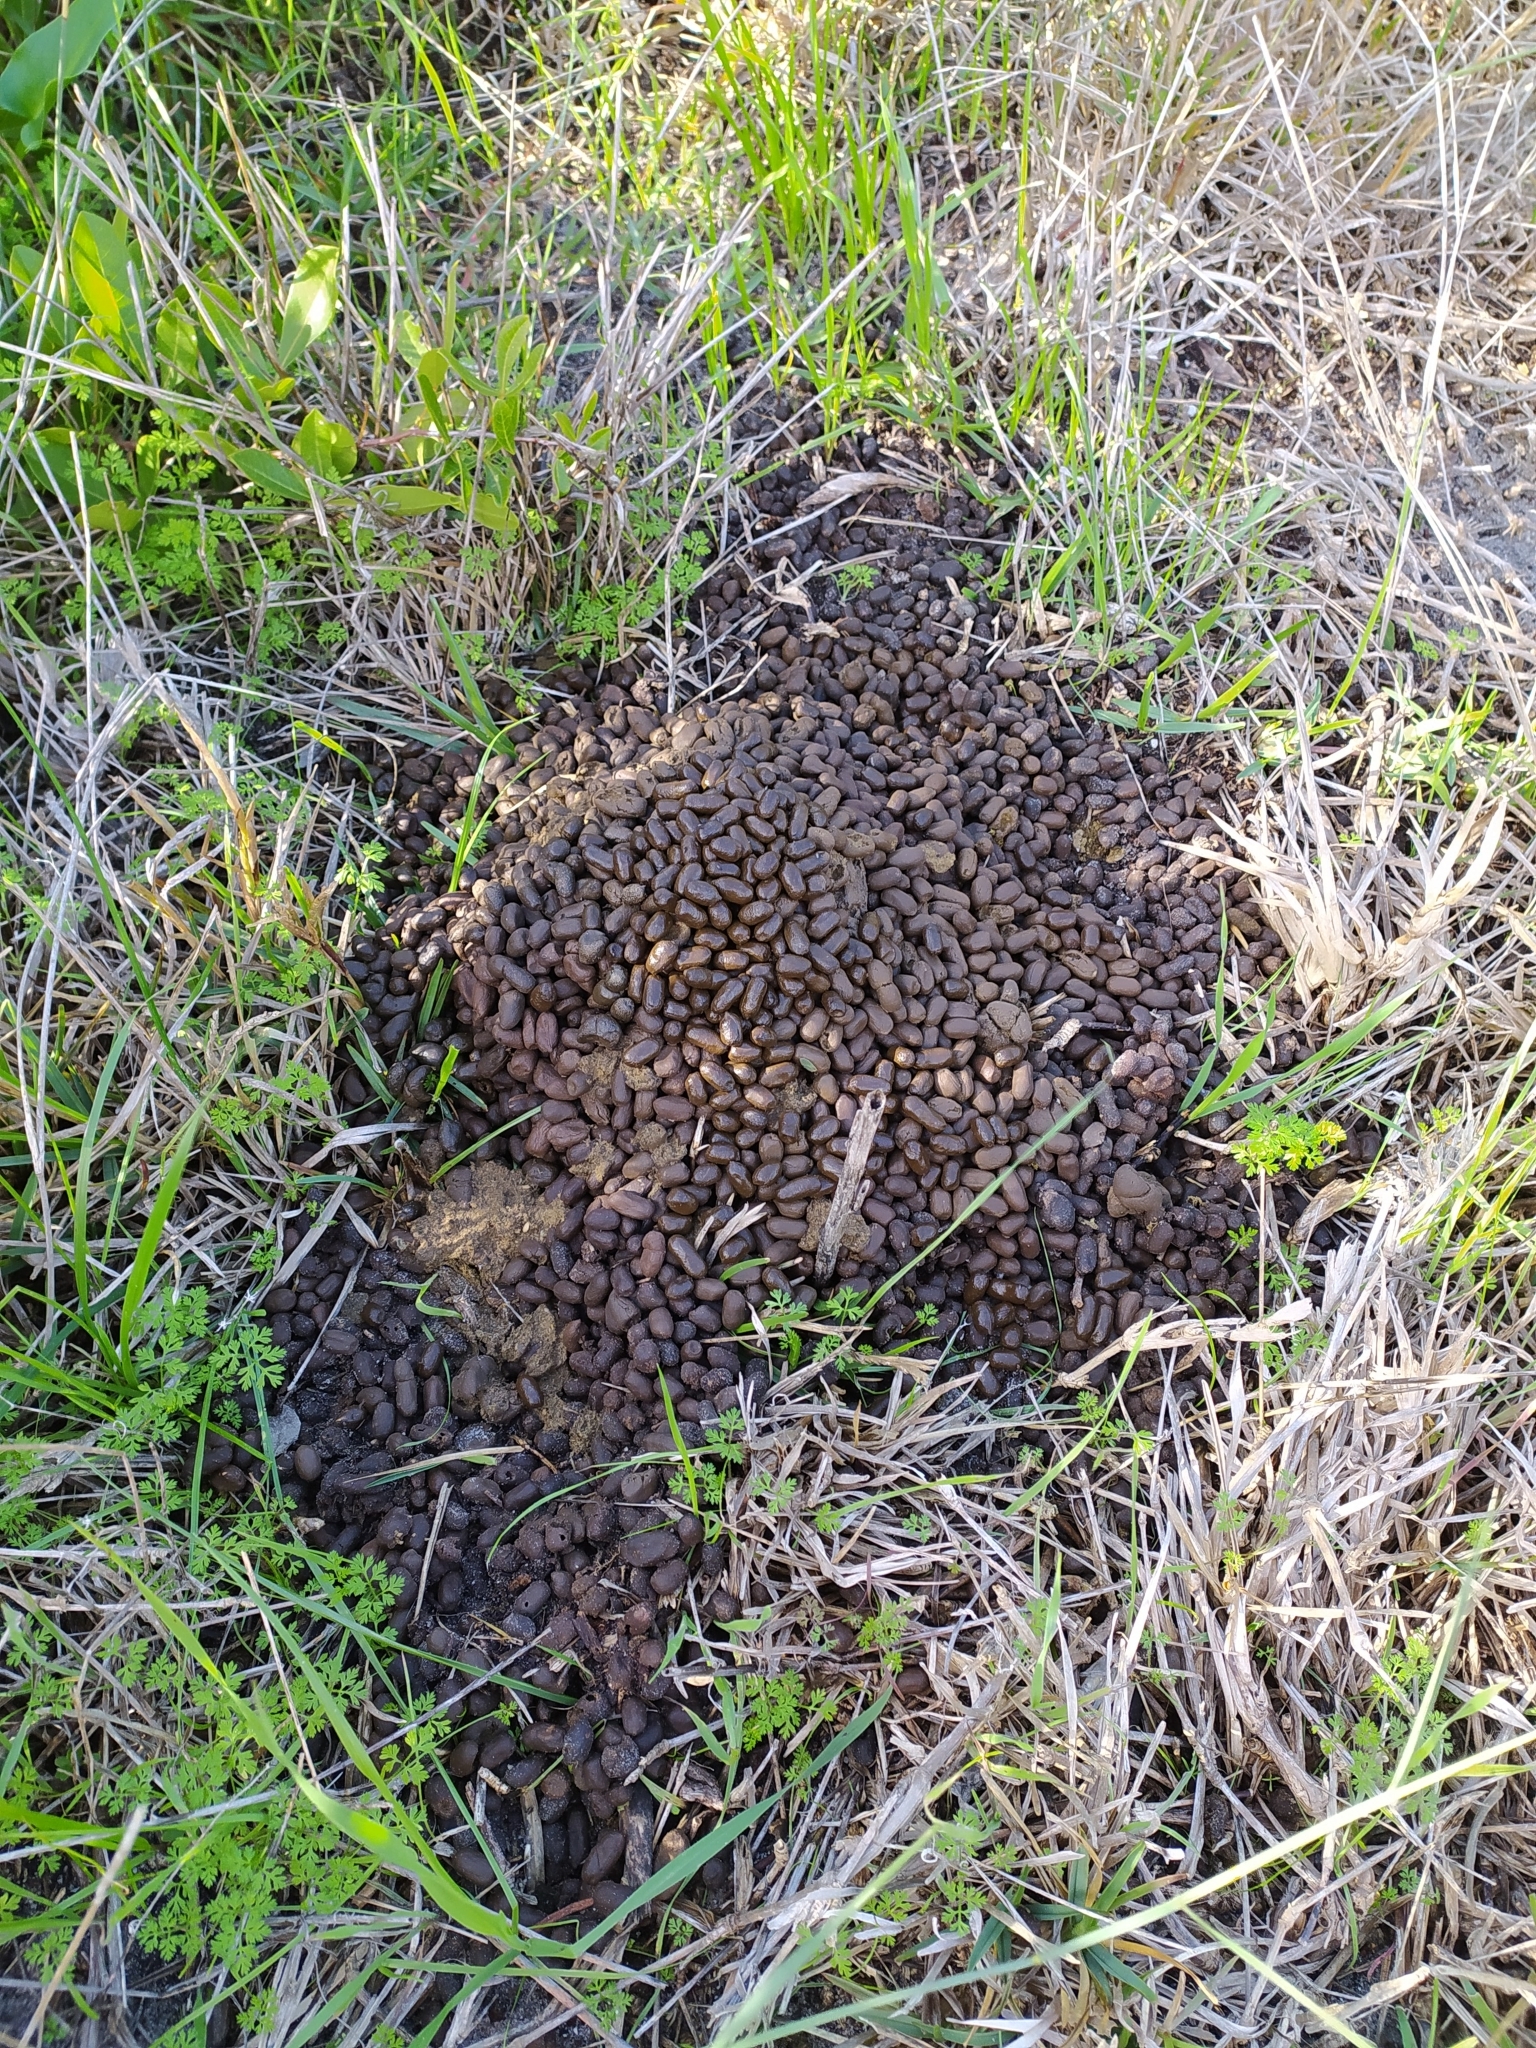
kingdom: Animalia
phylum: Chordata
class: Mammalia
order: Artiodactyla
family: Bovidae
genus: Raphicerus
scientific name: Raphicerus melanotis
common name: Cape grysbok
